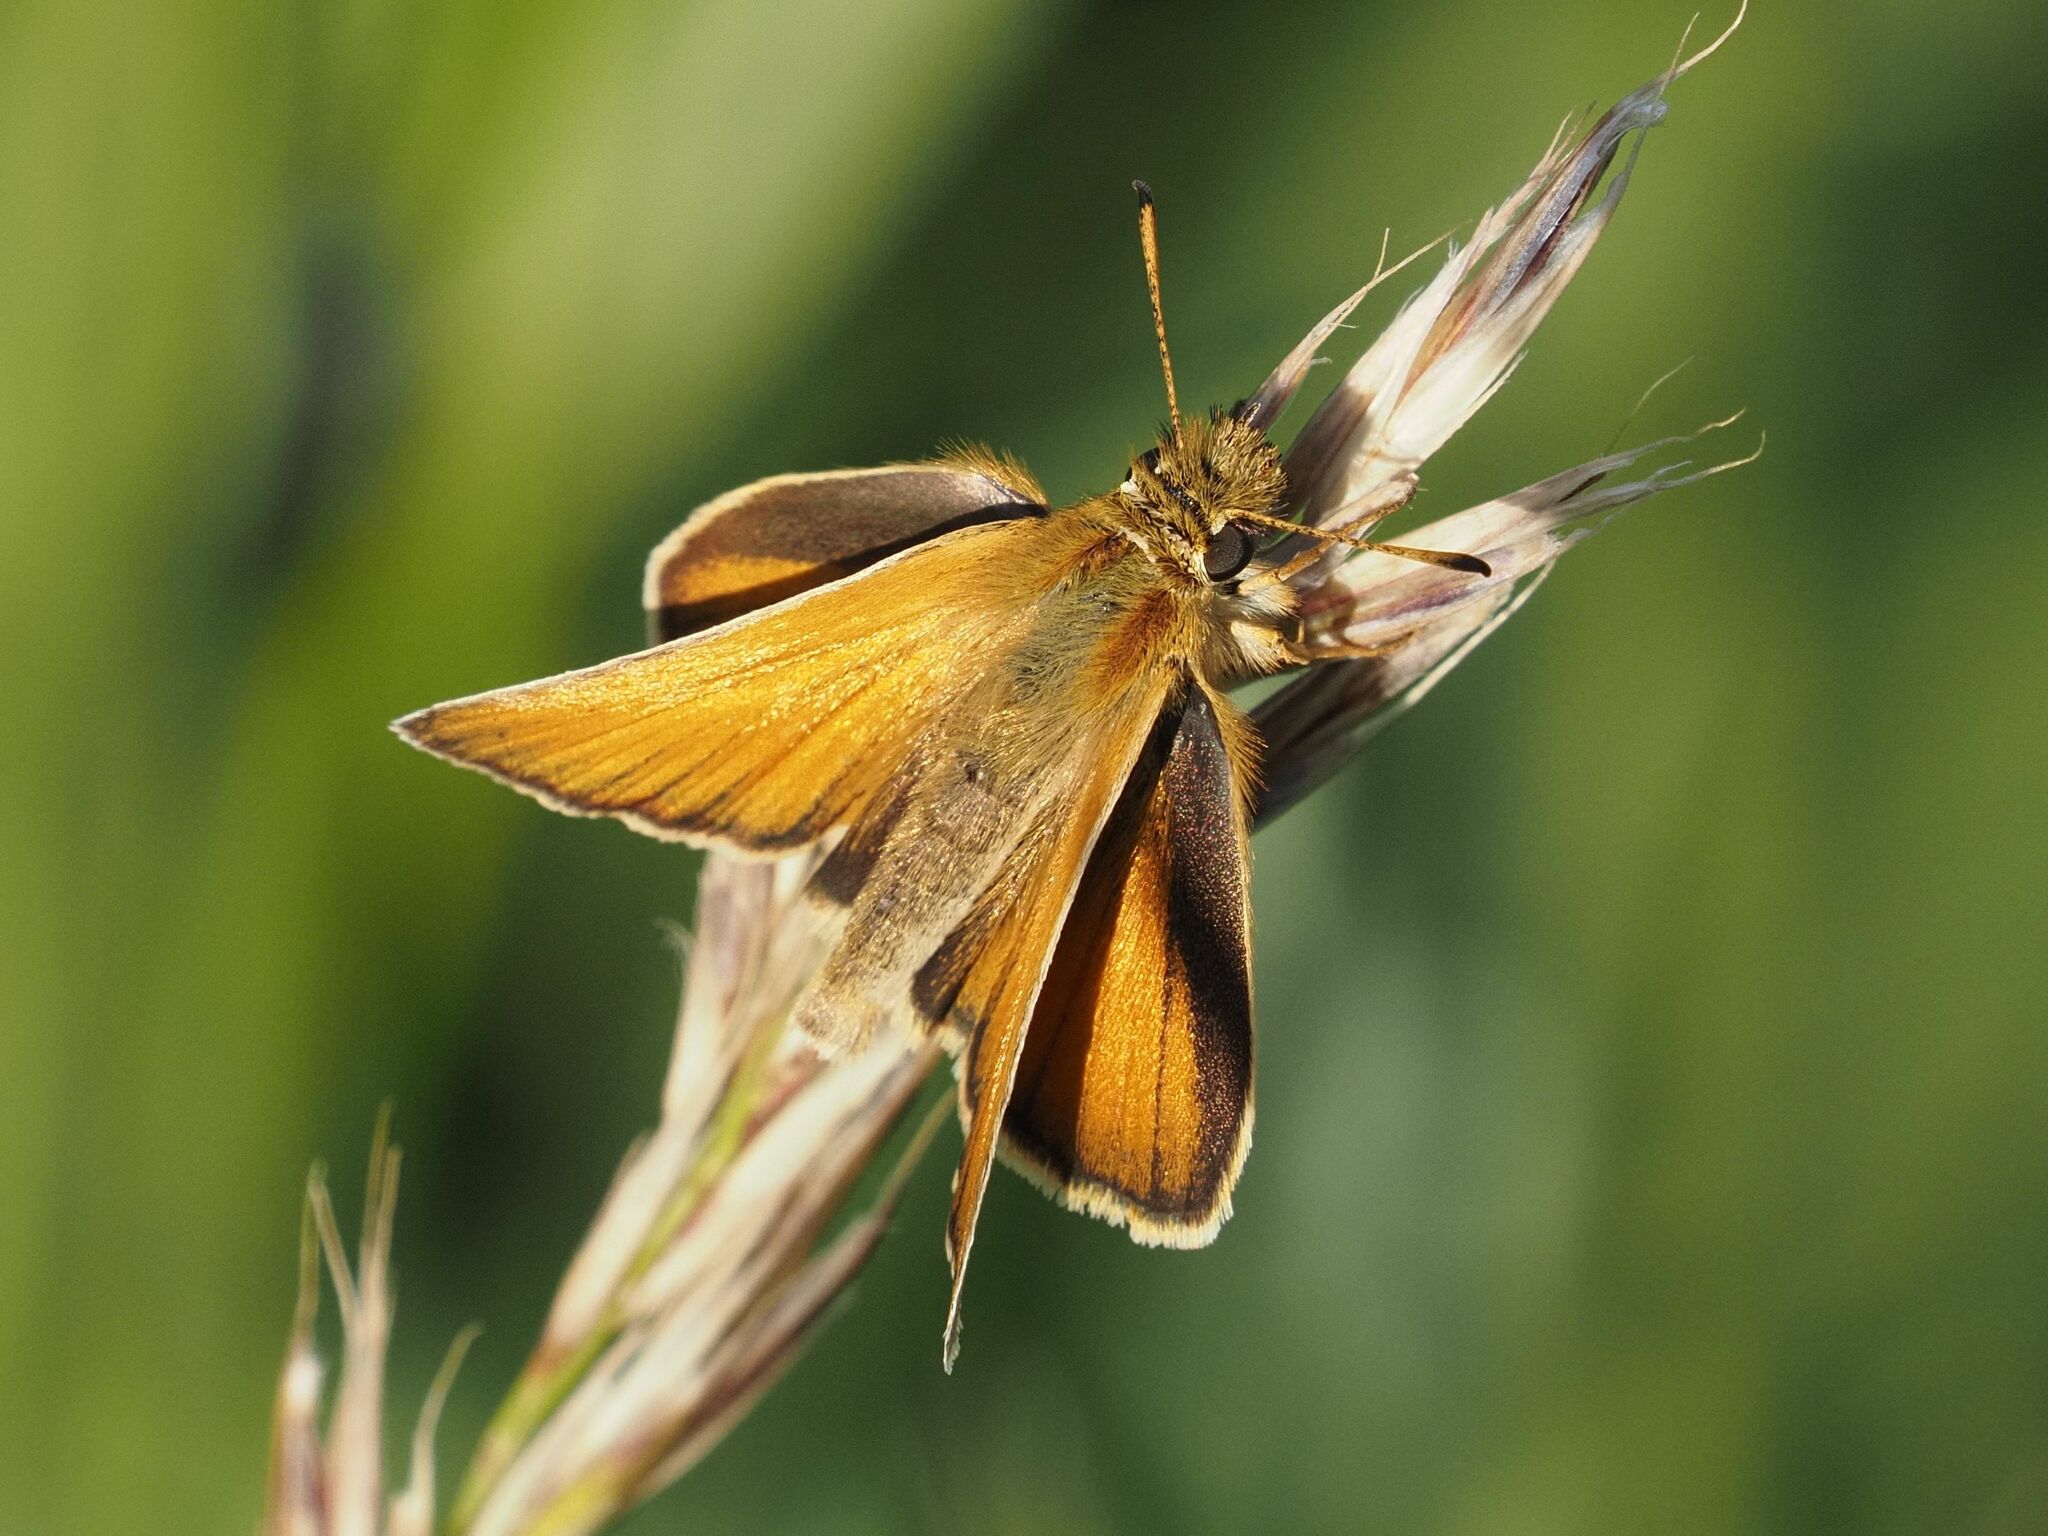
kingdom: Animalia
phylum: Arthropoda
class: Insecta
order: Lepidoptera
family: Hesperiidae
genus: Thymelicus
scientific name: Thymelicus lineola
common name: Essex skipper
